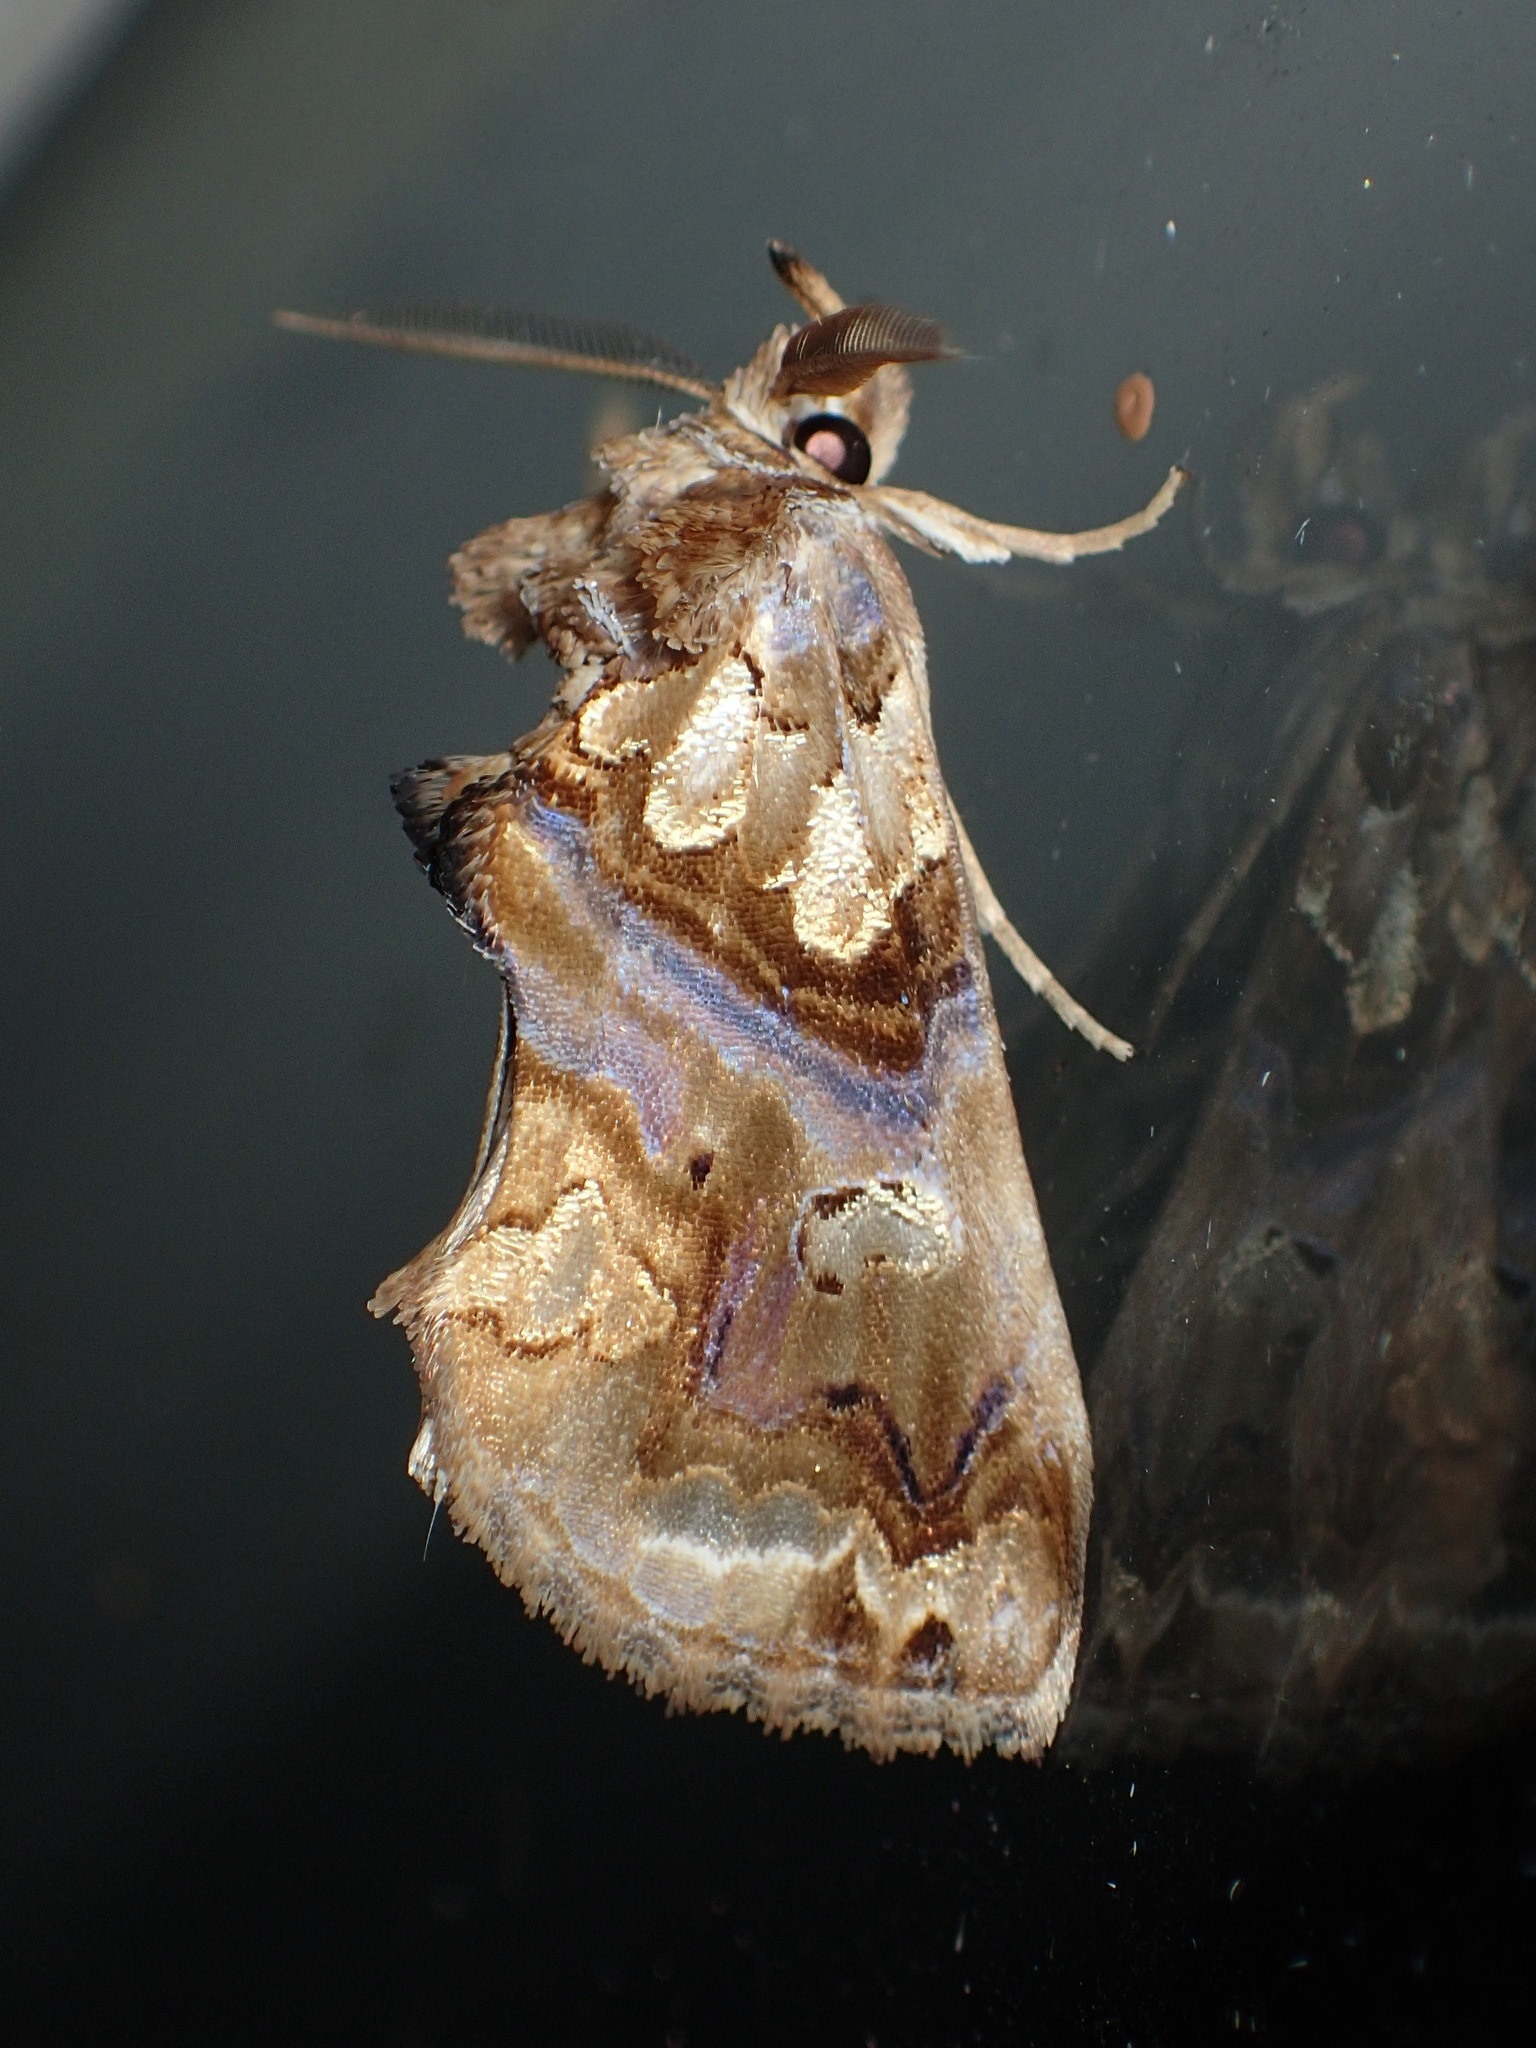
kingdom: Animalia
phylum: Arthropoda
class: Insecta
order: Lepidoptera
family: Erebidae
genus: Plusiodonta
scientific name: Plusiodonta compressipalpis
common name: Moonseed moth
